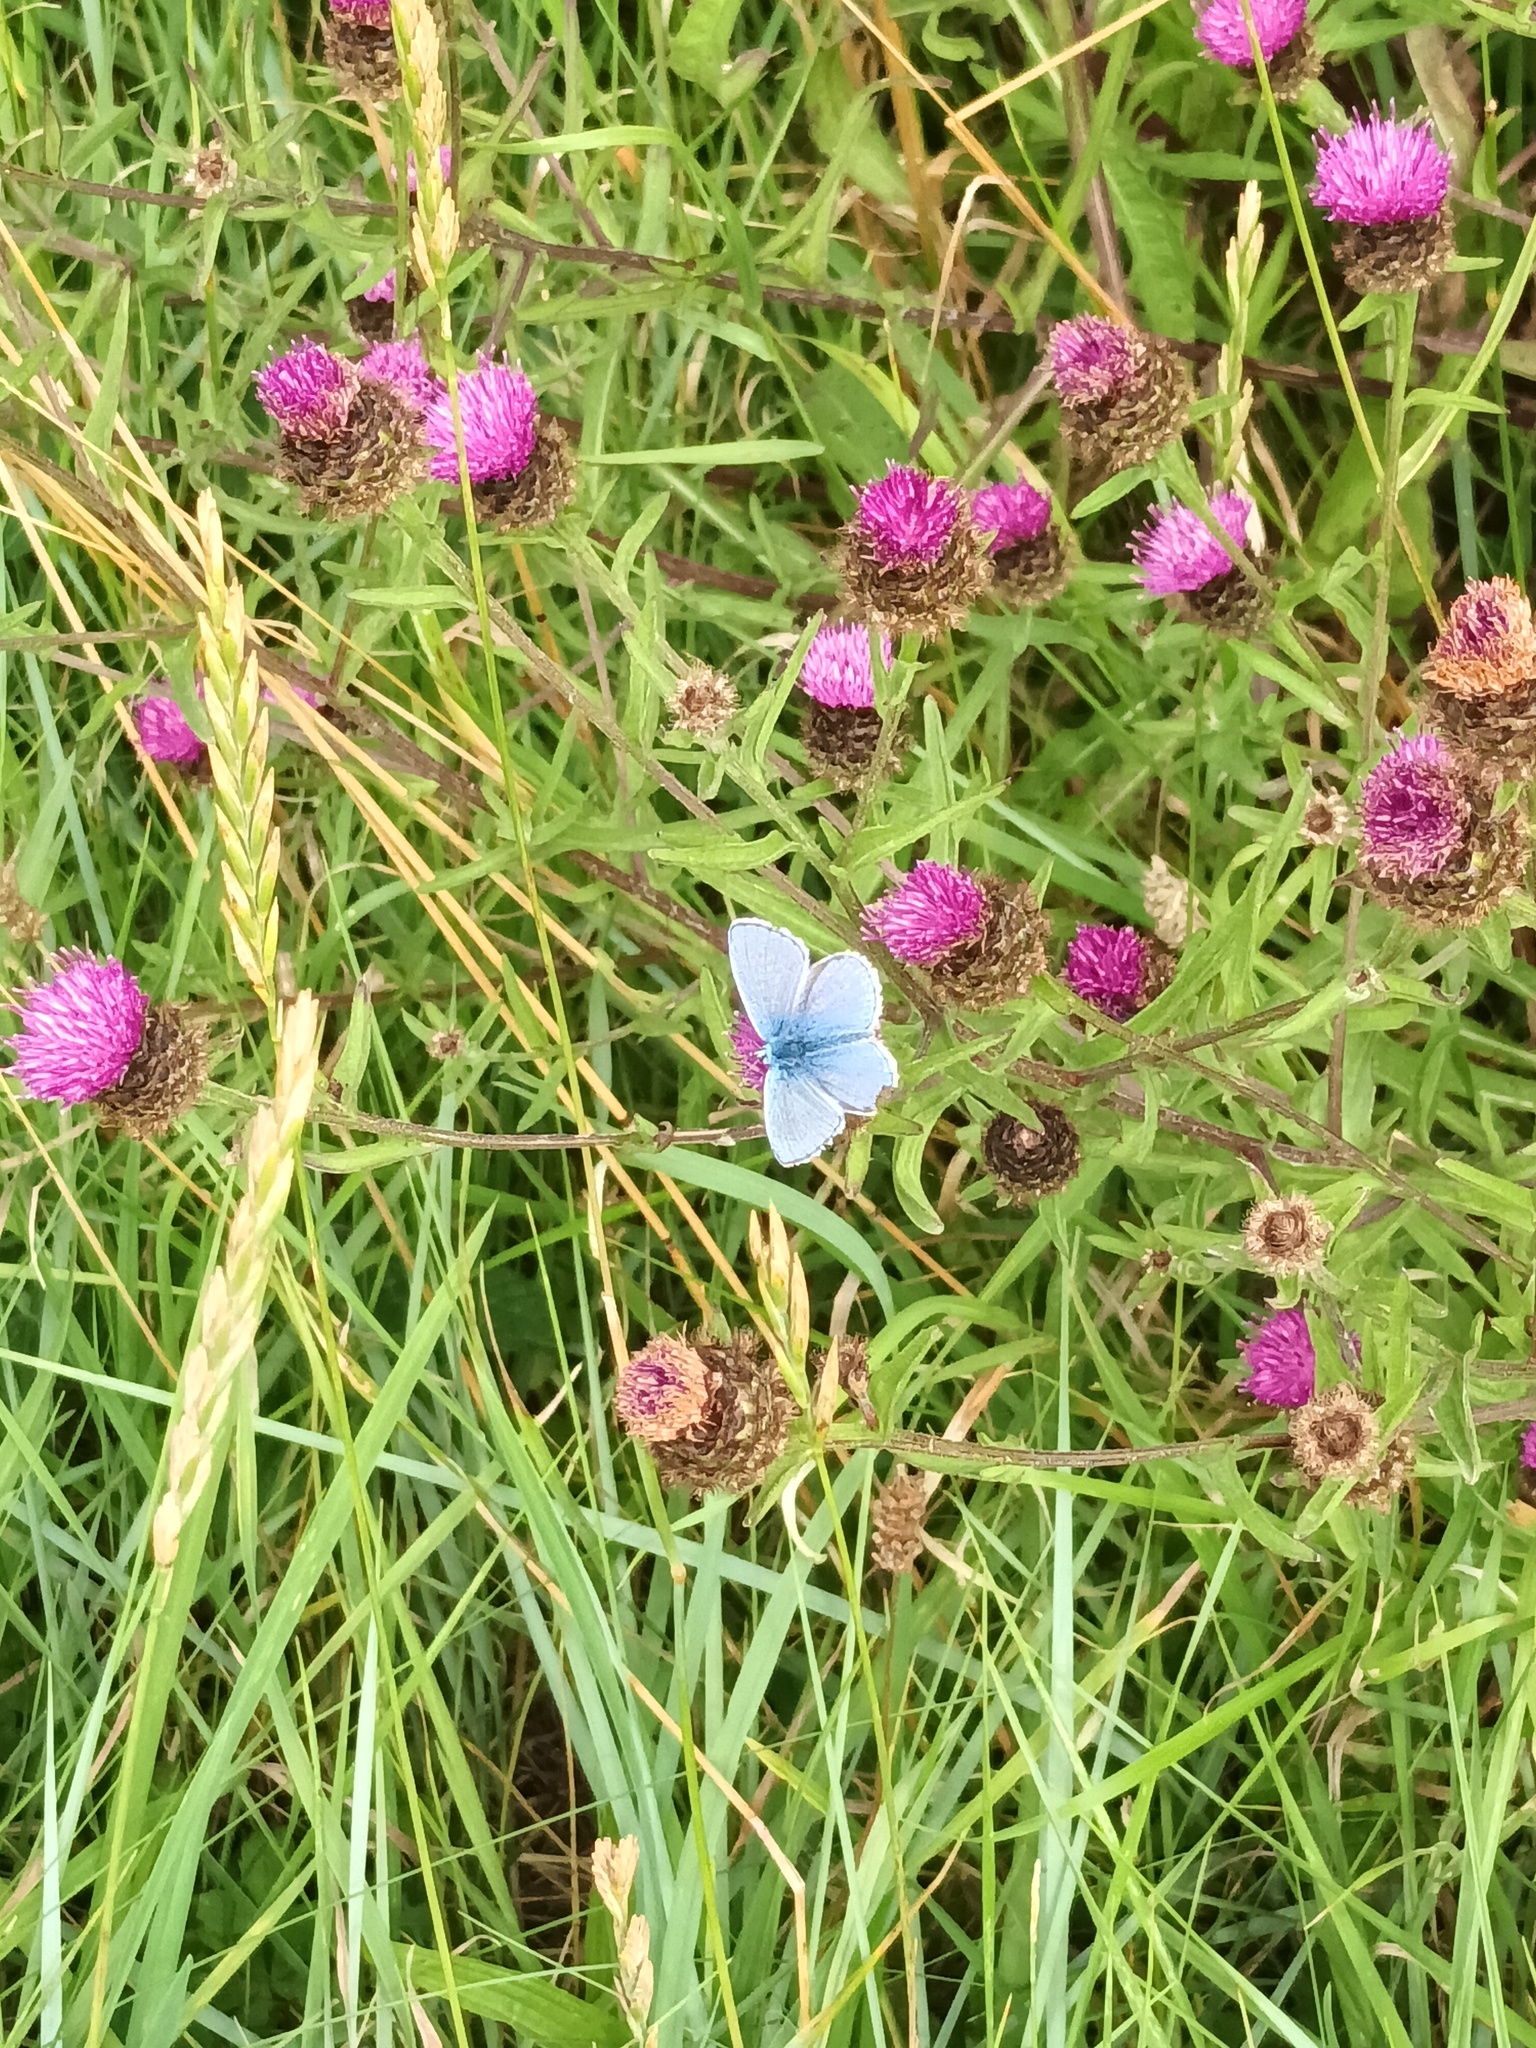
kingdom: Animalia
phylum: Arthropoda
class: Insecta
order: Lepidoptera
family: Lycaenidae
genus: Polyommatus
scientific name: Polyommatus icarus
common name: Common blue
